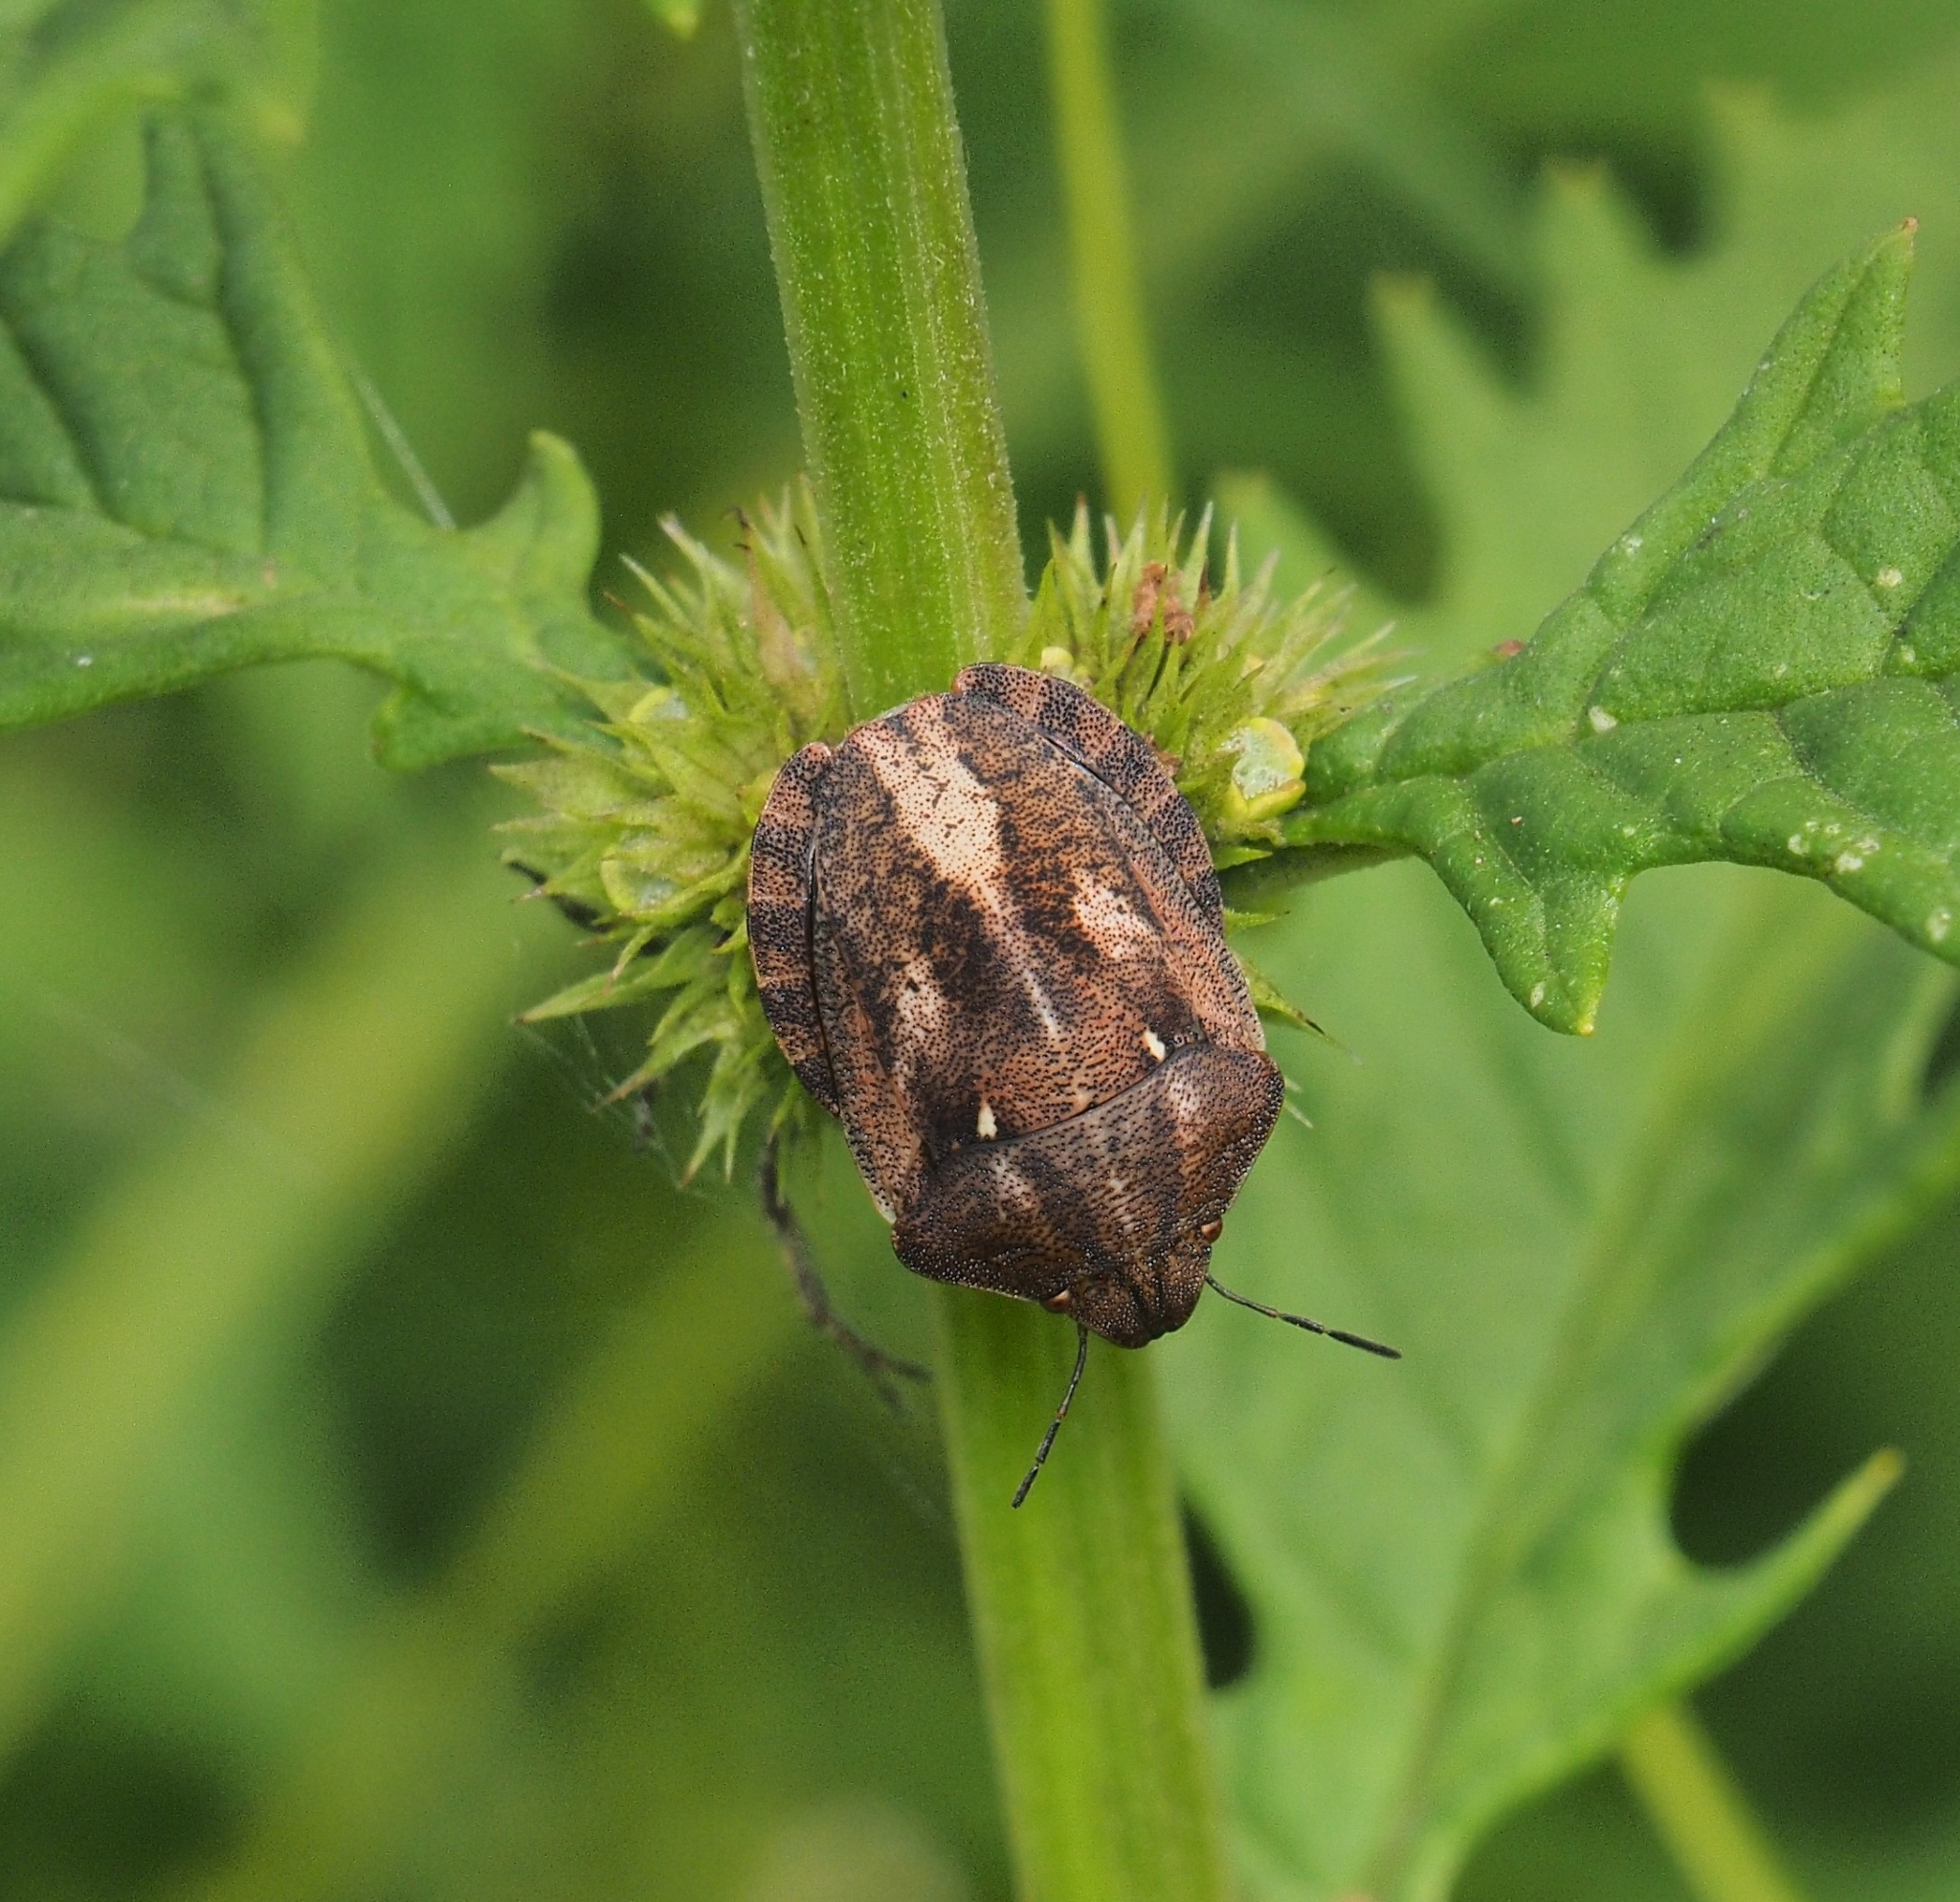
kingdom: Animalia
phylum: Arthropoda
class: Insecta
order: Hemiptera
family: Scutelleridae
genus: Eurygaster
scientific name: Eurygaster testudinaria
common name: Tortoise bug
